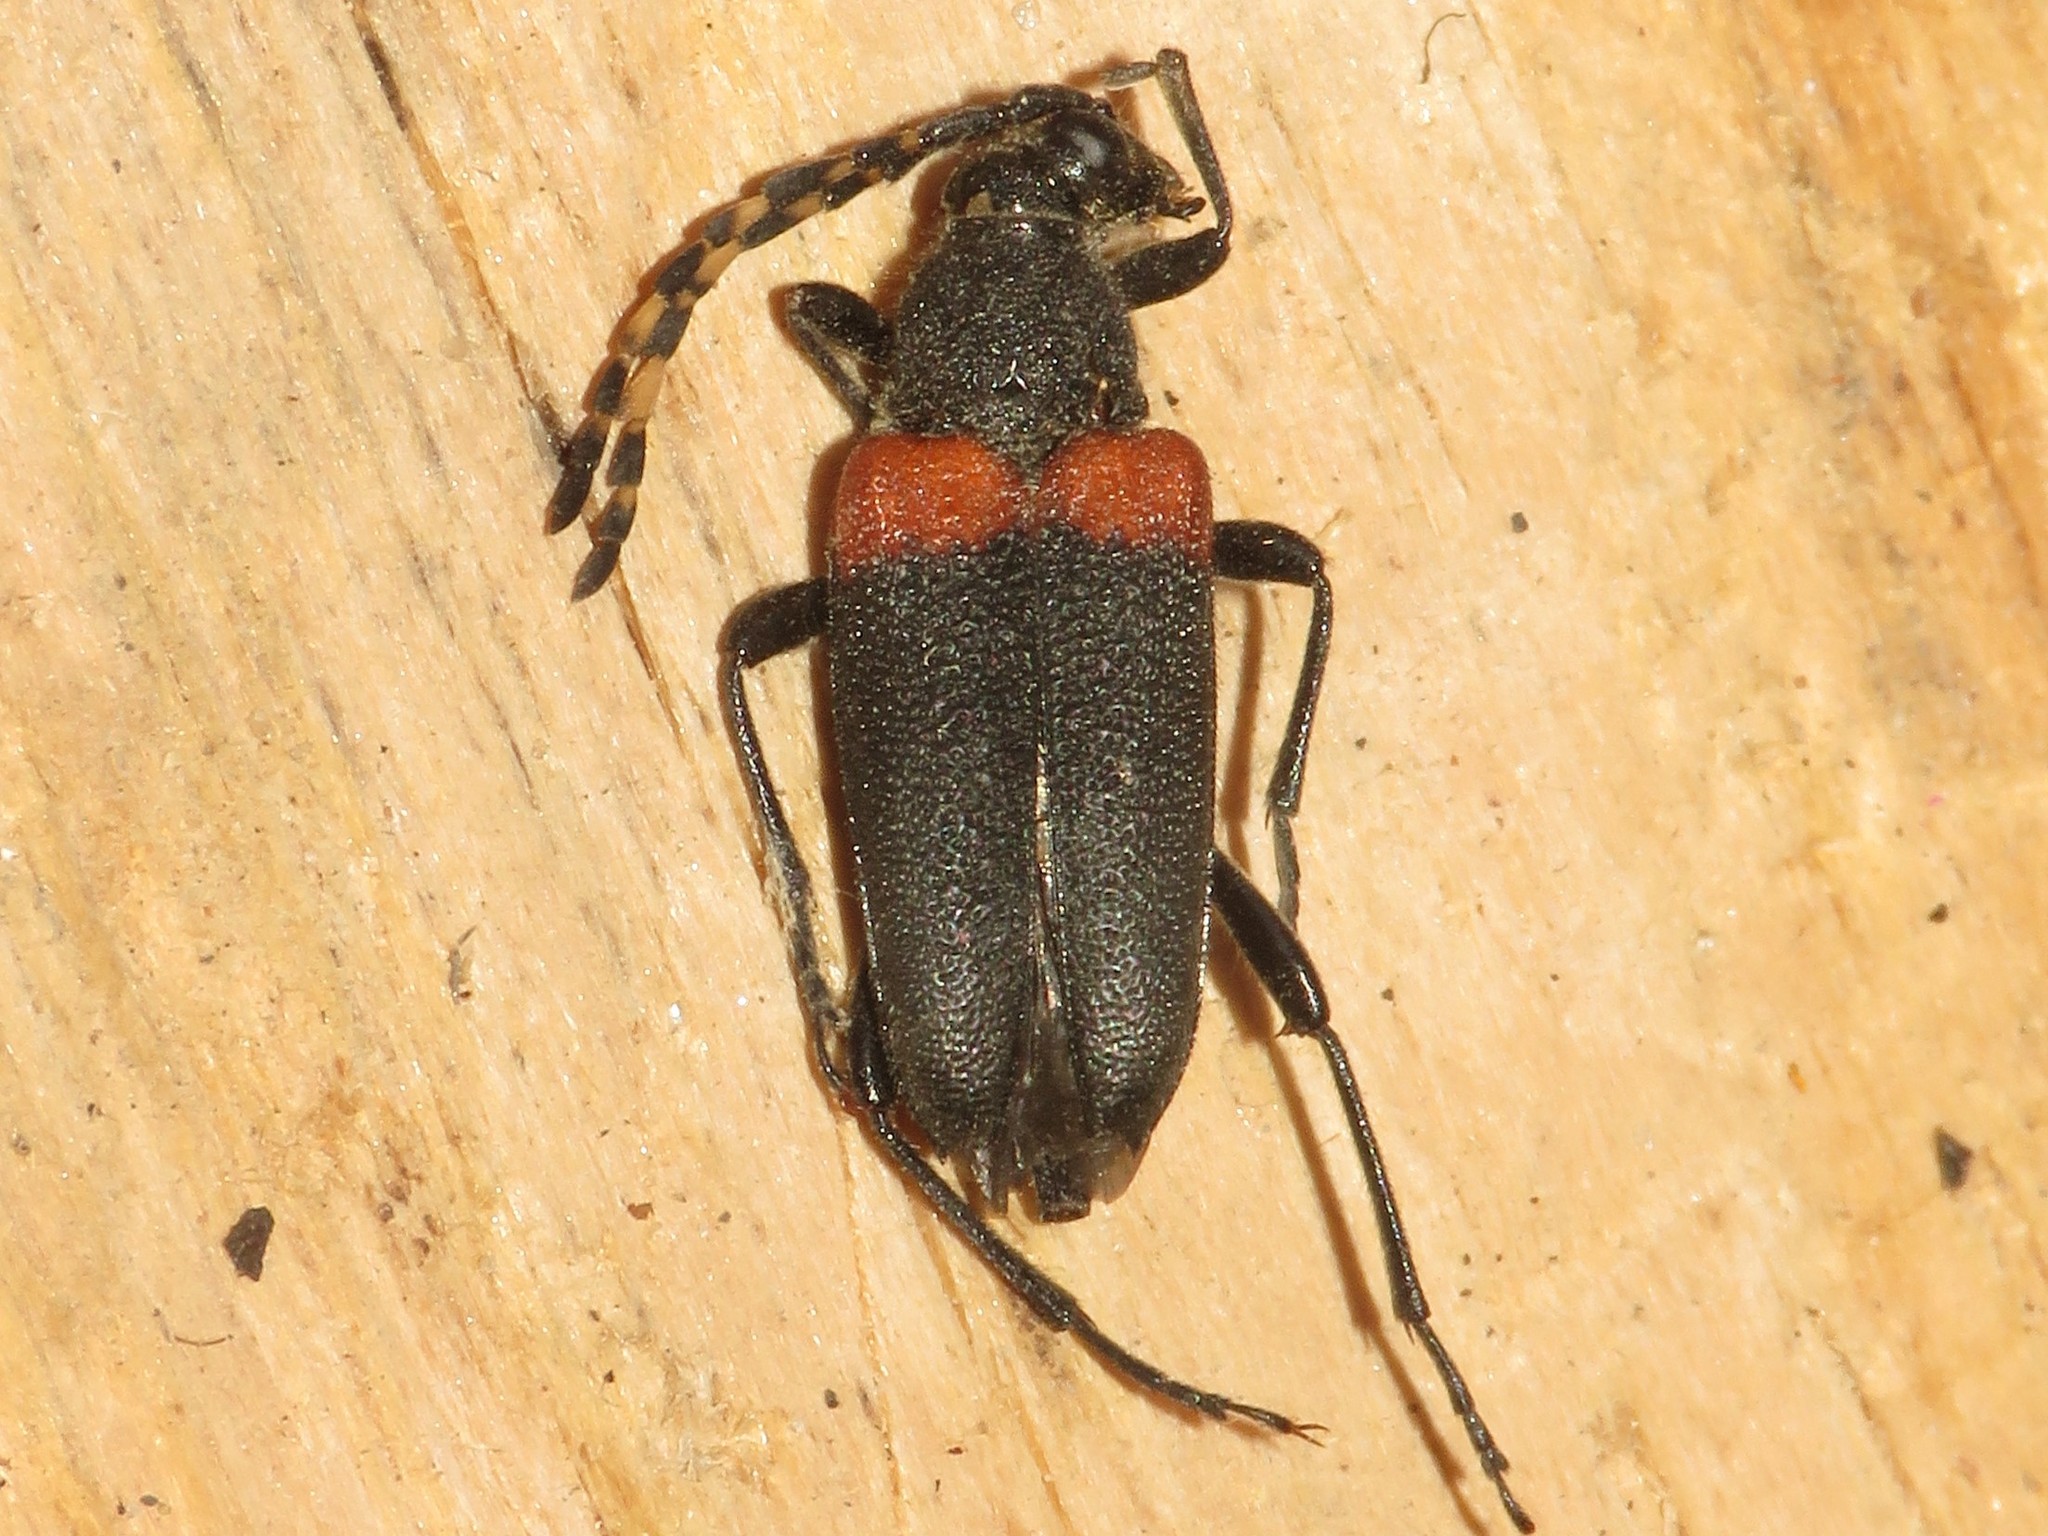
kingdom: Animalia
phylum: Arthropoda
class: Insecta
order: Coleoptera
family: Cerambycidae
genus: Stictoleptura
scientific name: Stictoleptura canadensis
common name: Red-shouldered pine borer
